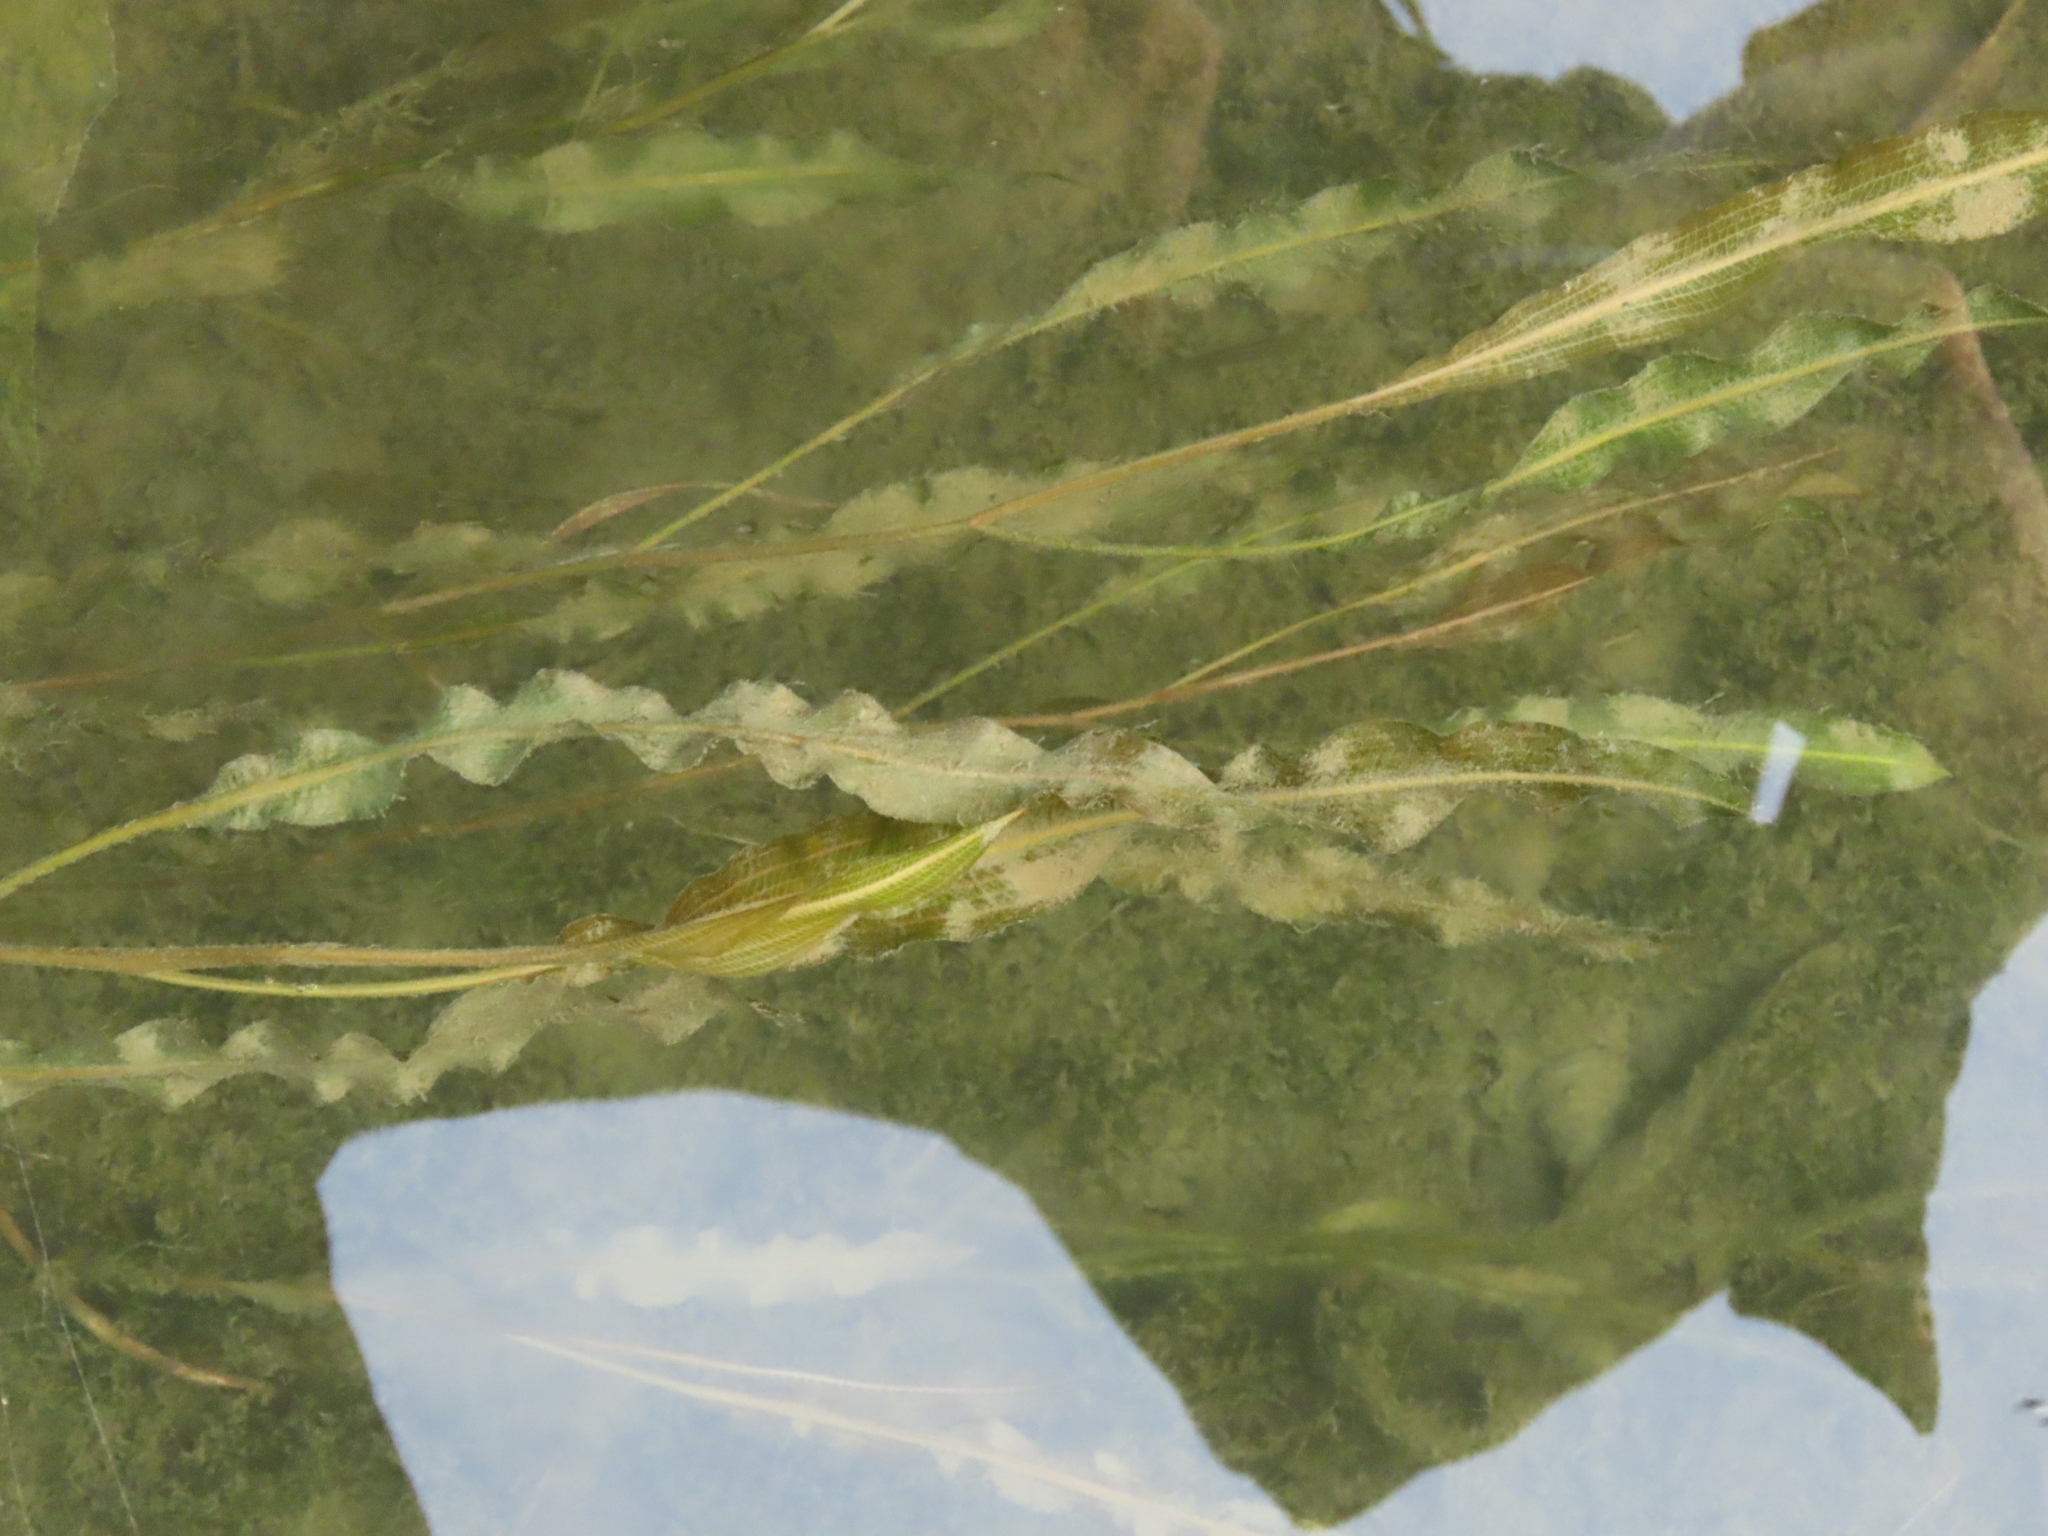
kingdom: Plantae
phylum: Tracheophyta
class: Liliopsida
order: Alismatales
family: Potamogetonaceae
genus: Potamogeton
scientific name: Potamogeton wrightii
